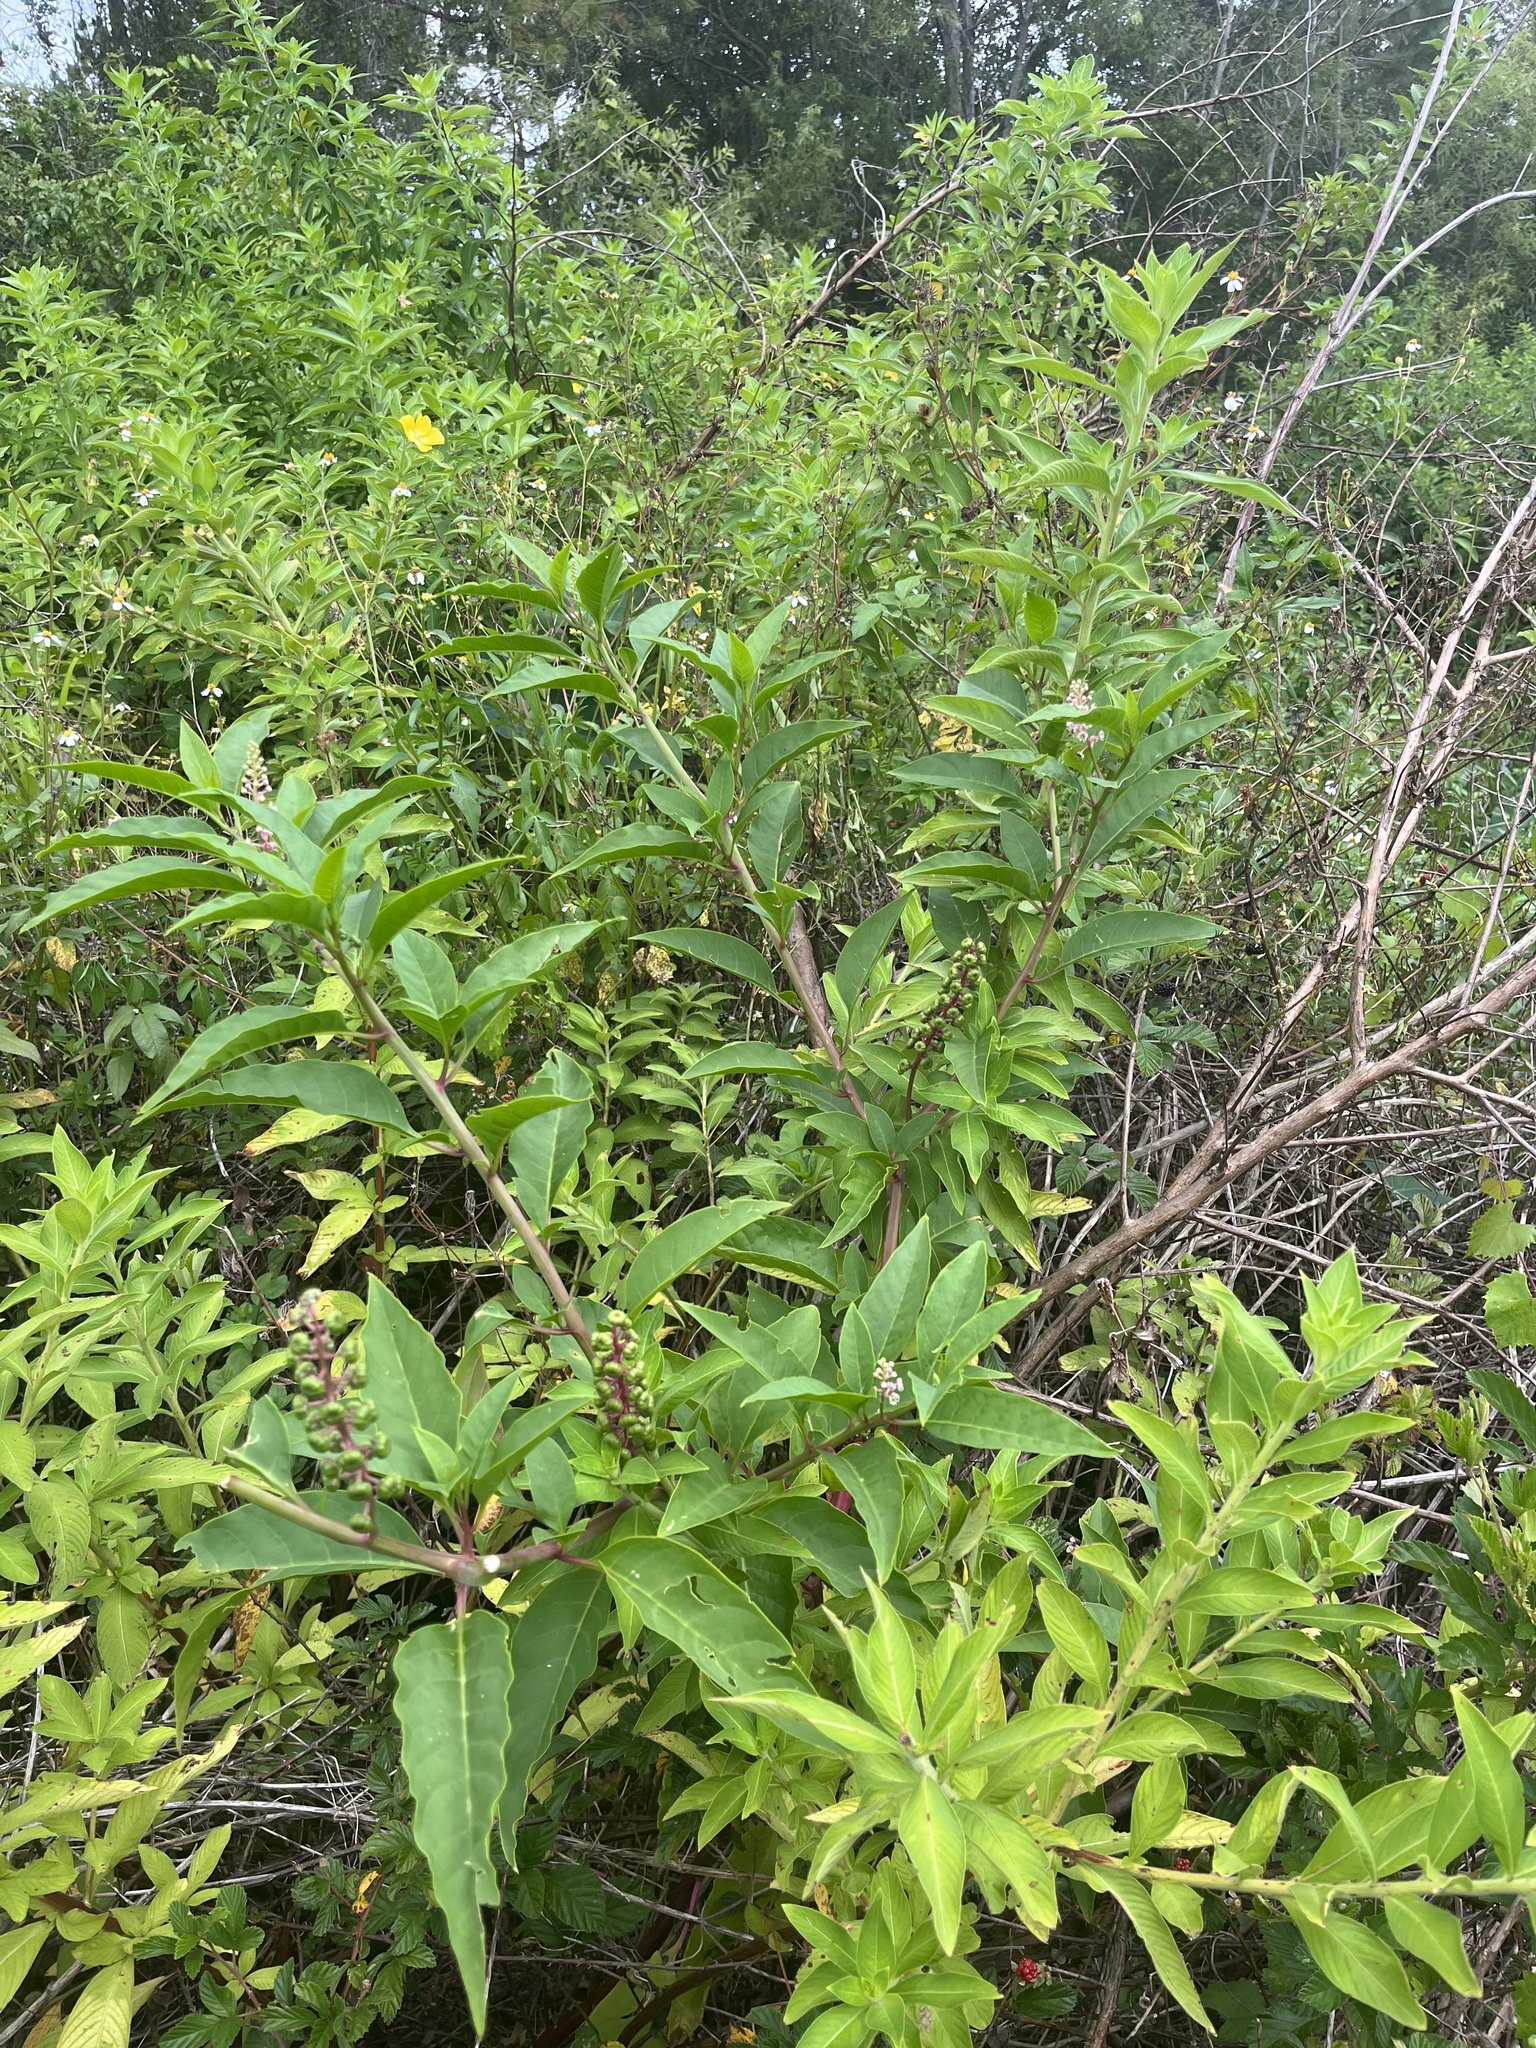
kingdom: Plantae
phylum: Tracheophyta
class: Magnoliopsida
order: Caryophyllales
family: Phytolaccaceae
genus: Phytolacca
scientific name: Phytolacca americana
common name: American pokeweed
